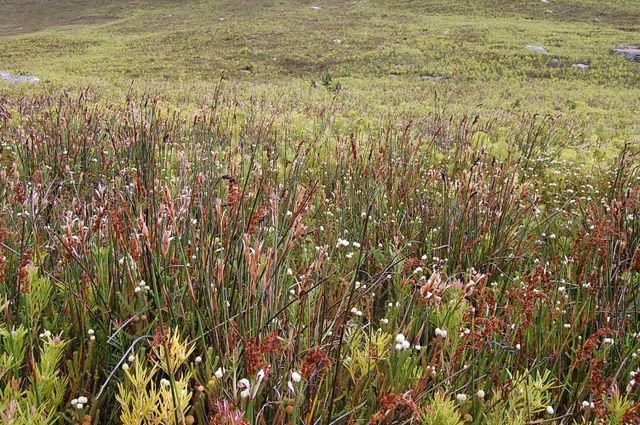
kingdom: Plantae
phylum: Tracheophyta
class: Liliopsida
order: Poales
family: Restionaceae
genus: Elegia
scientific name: Elegia mucronata
